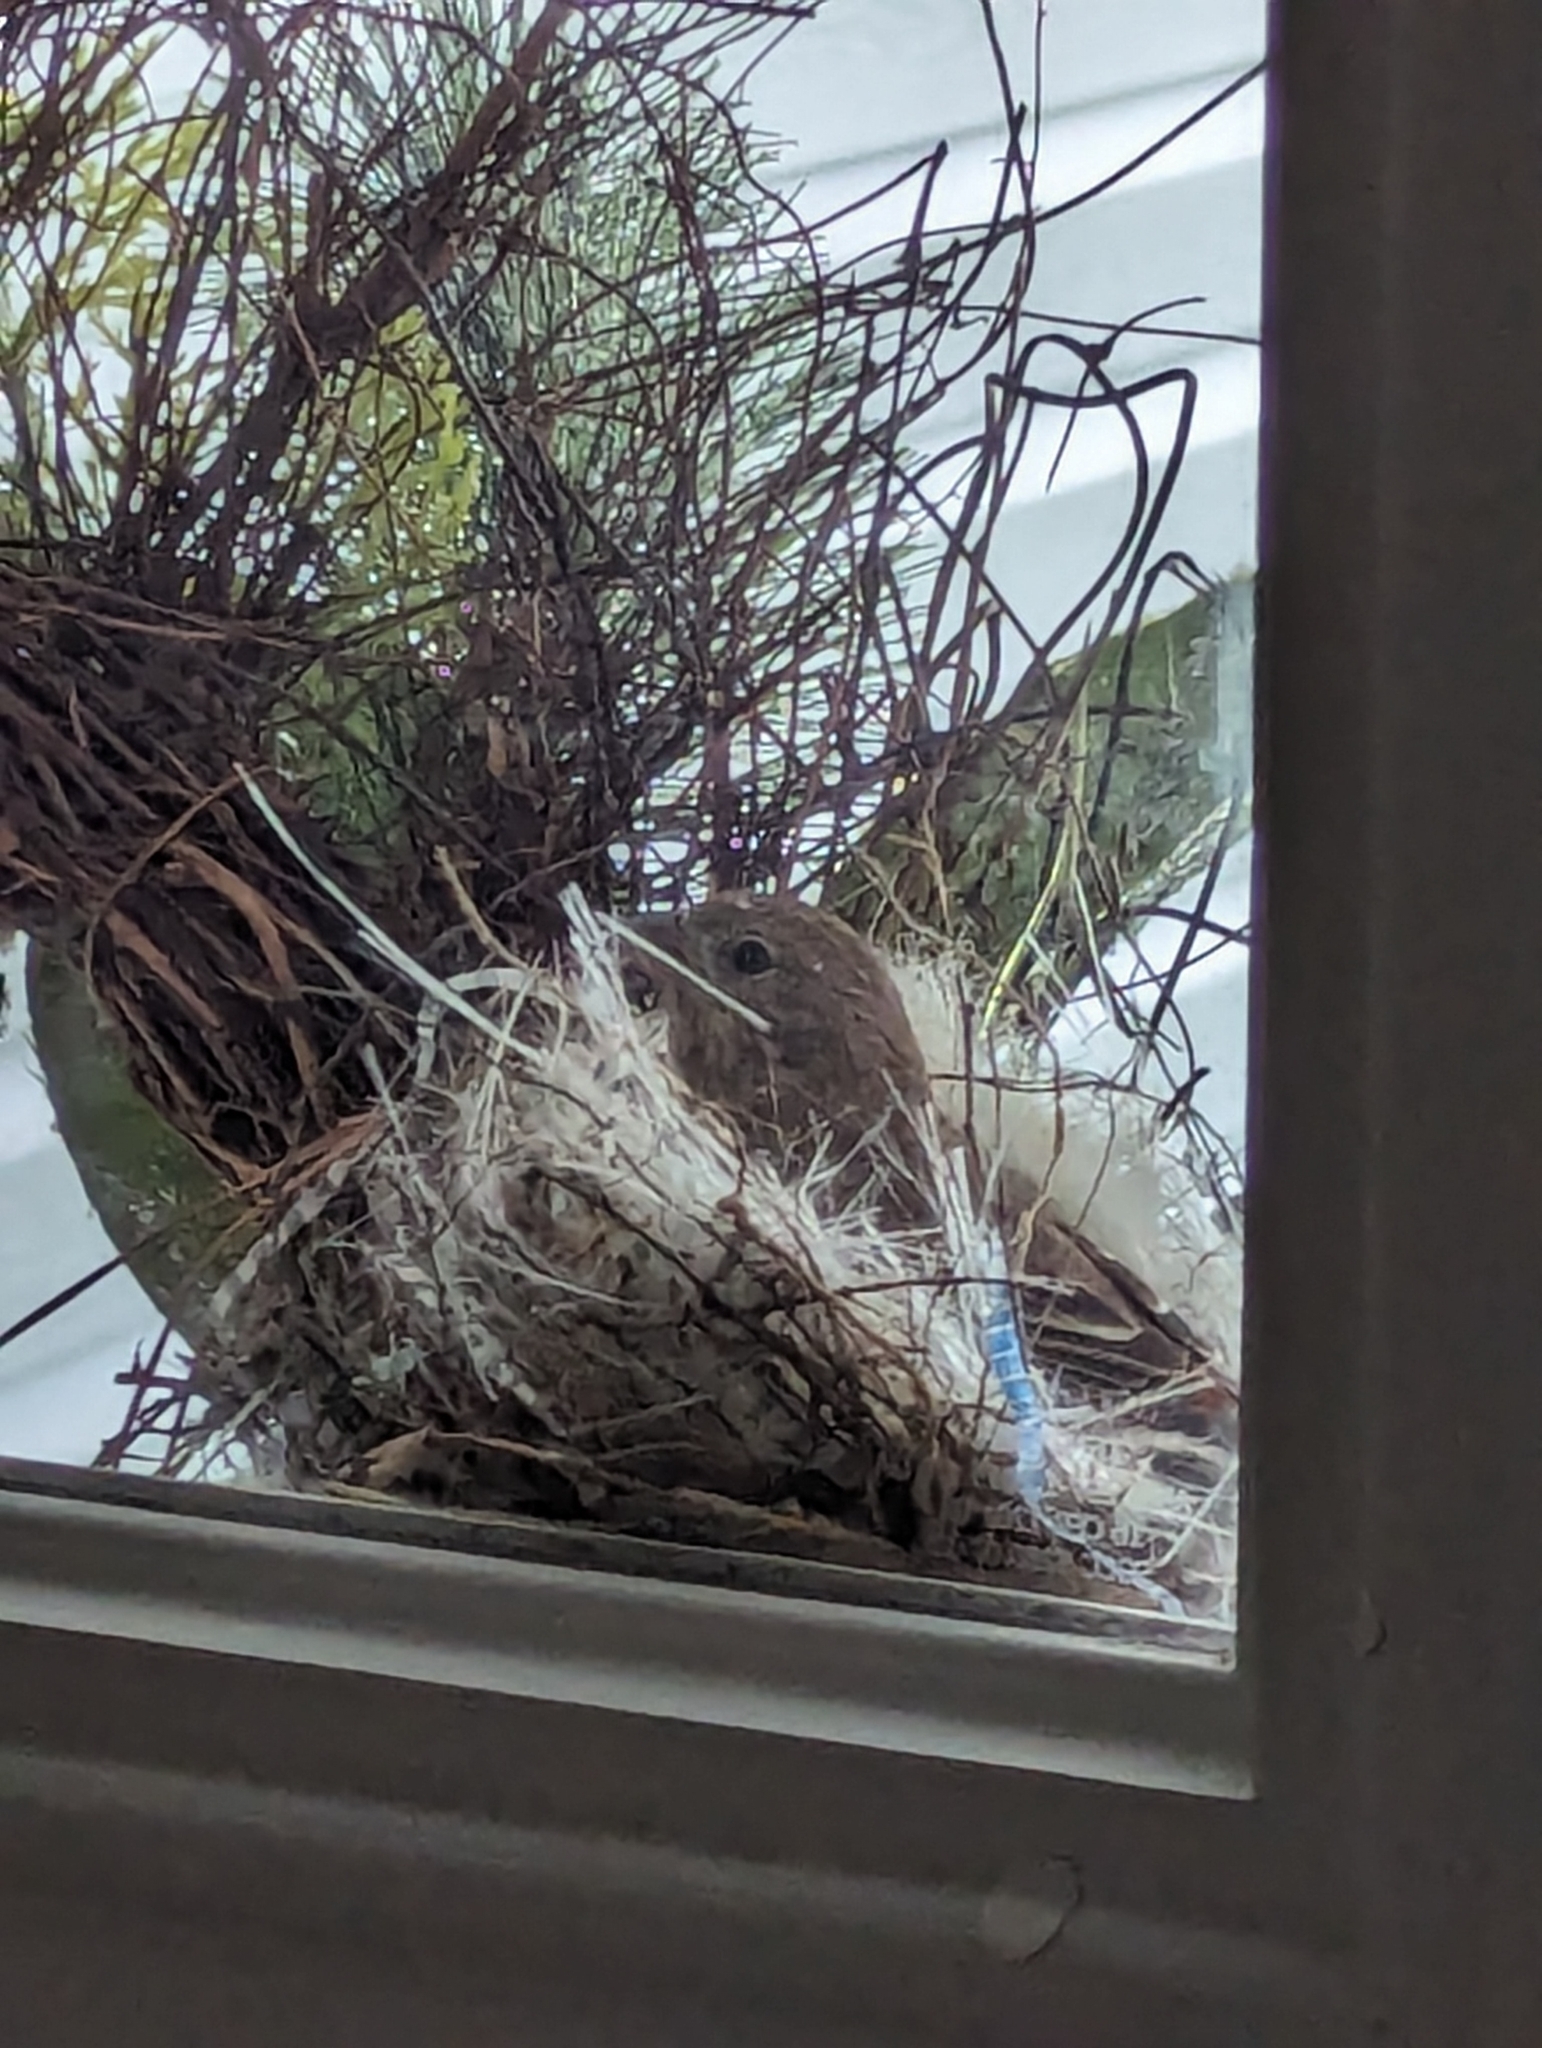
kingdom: Animalia
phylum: Chordata
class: Aves
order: Passeriformes
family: Fringillidae
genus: Haemorhous
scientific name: Haemorhous mexicanus
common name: House finch
